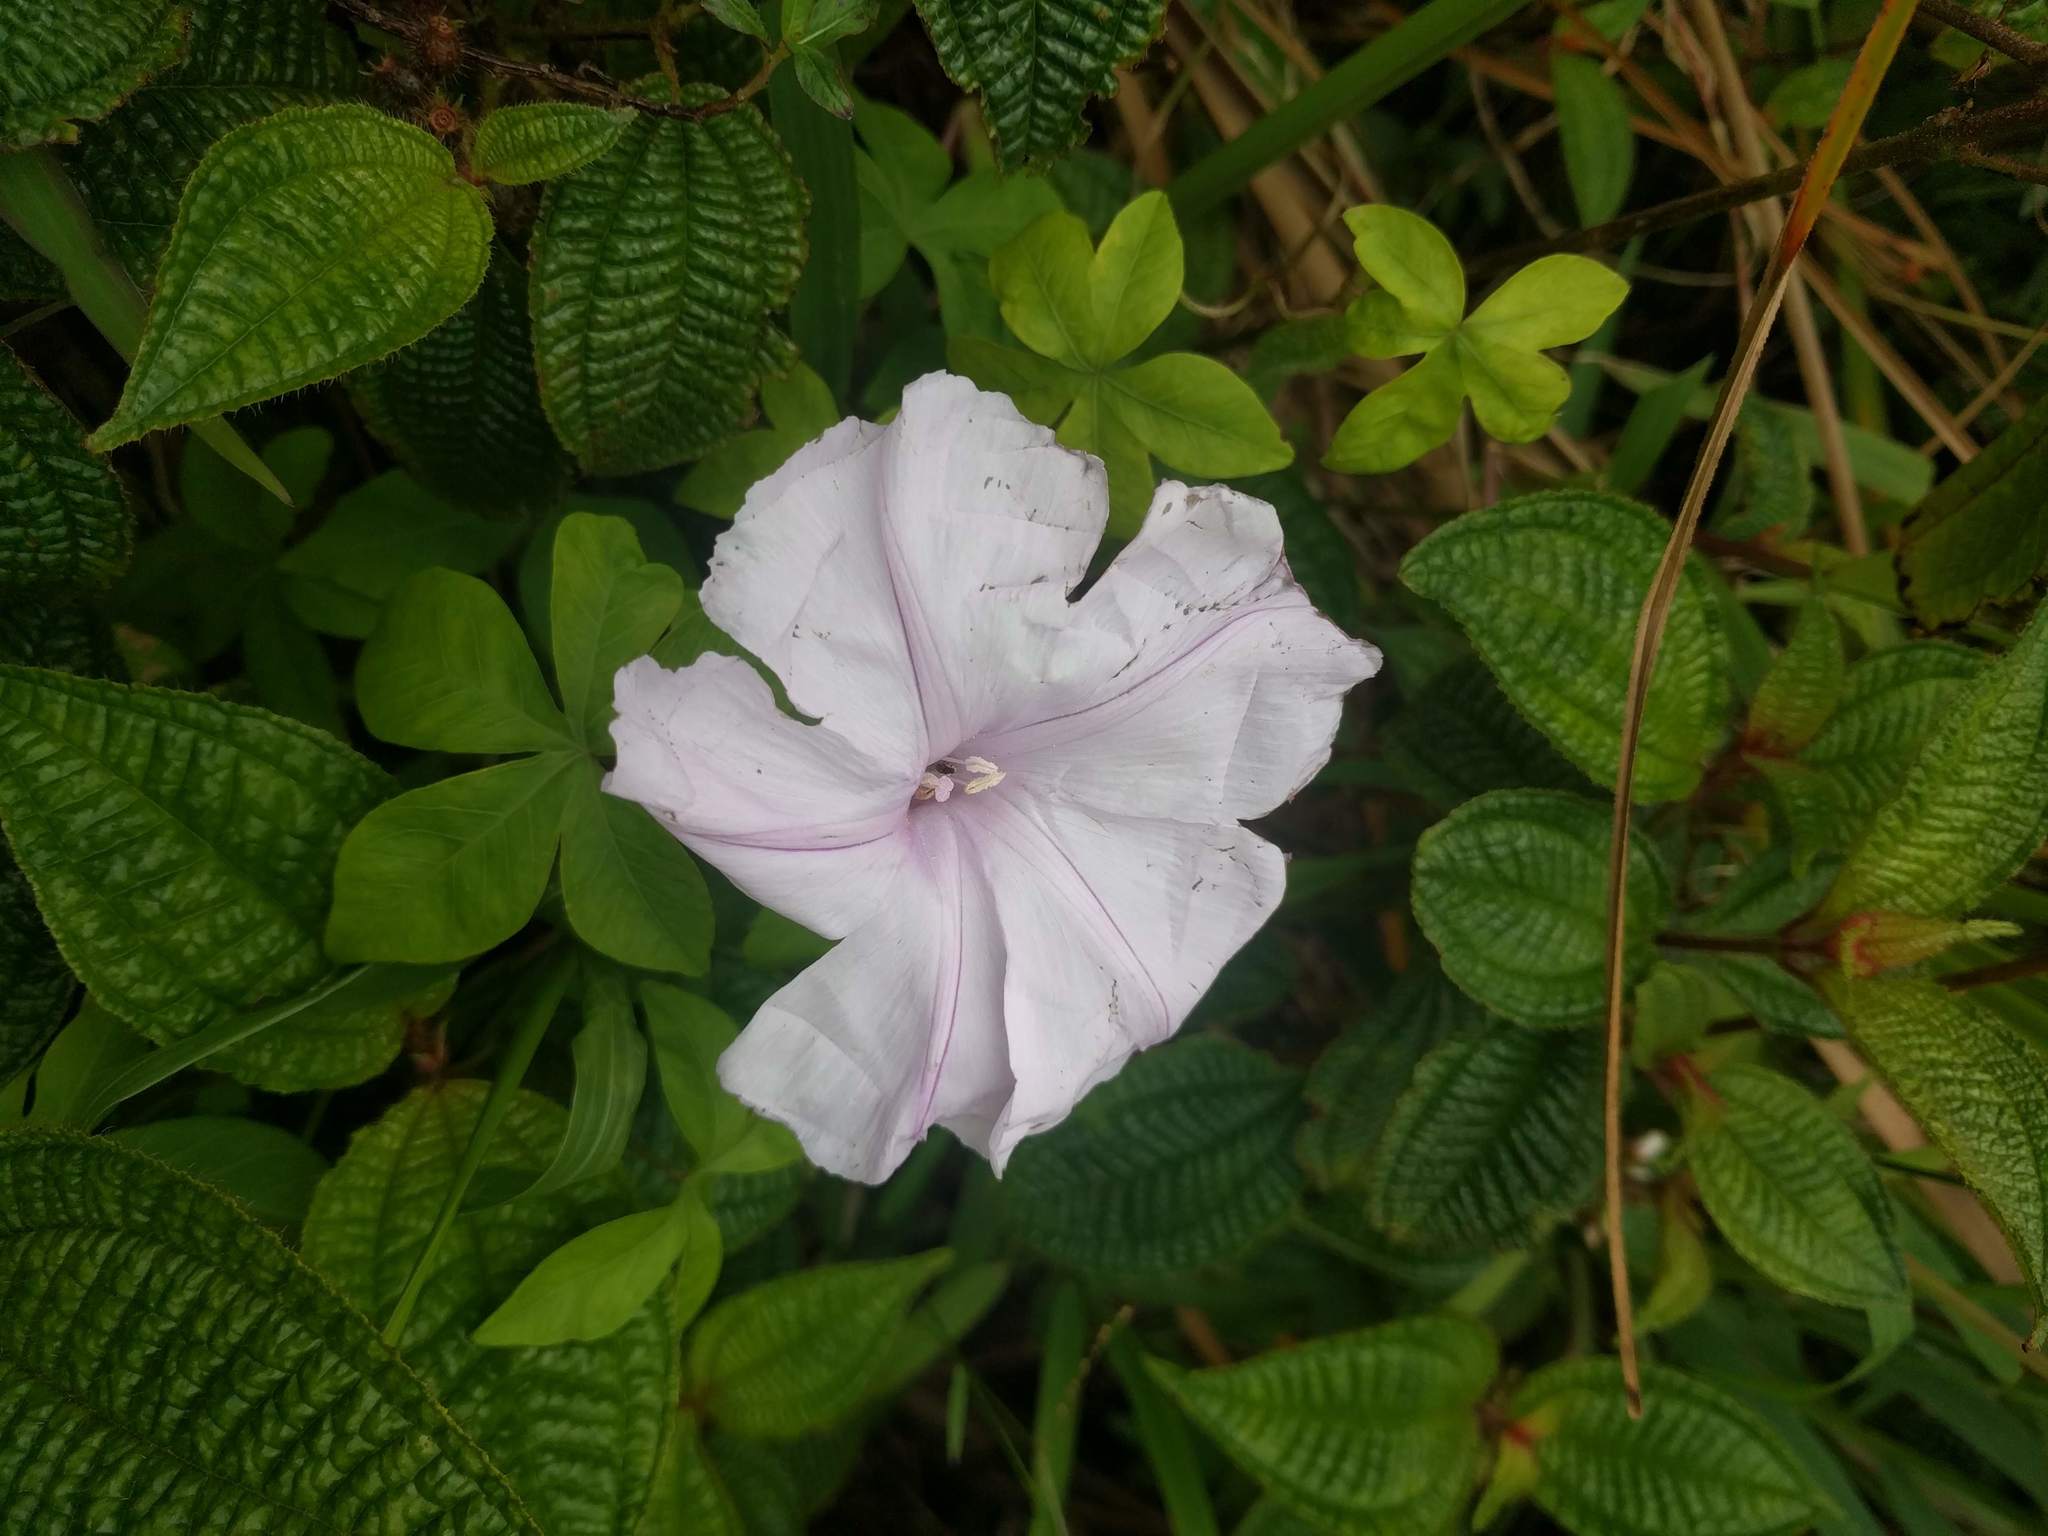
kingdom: Plantae
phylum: Tracheophyta
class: Magnoliopsida
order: Solanales
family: Convolvulaceae
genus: Ipomoea
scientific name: Ipomoea cairica
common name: Mile a minute vine
